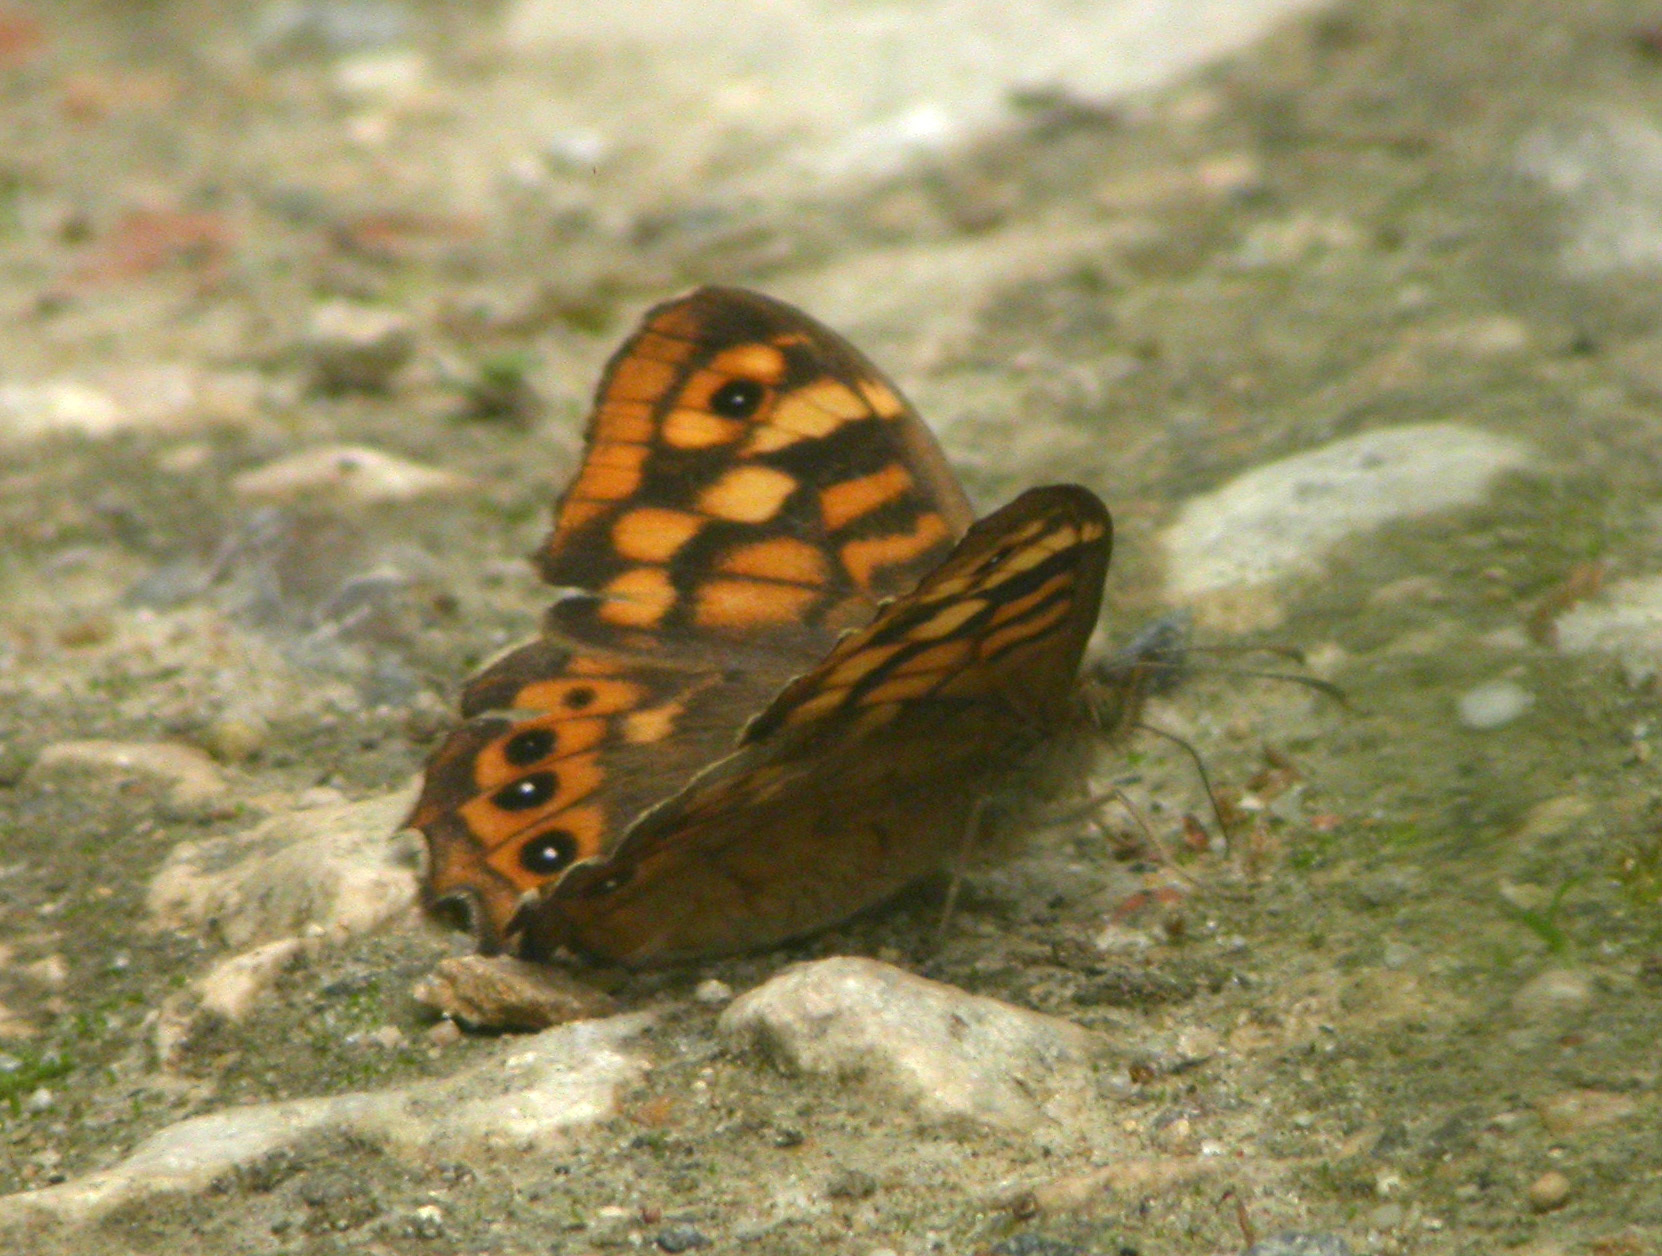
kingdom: Animalia
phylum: Arthropoda
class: Insecta
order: Lepidoptera
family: Nymphalidae
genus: Pararge
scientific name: Pararge aegeria
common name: Speckled wood
